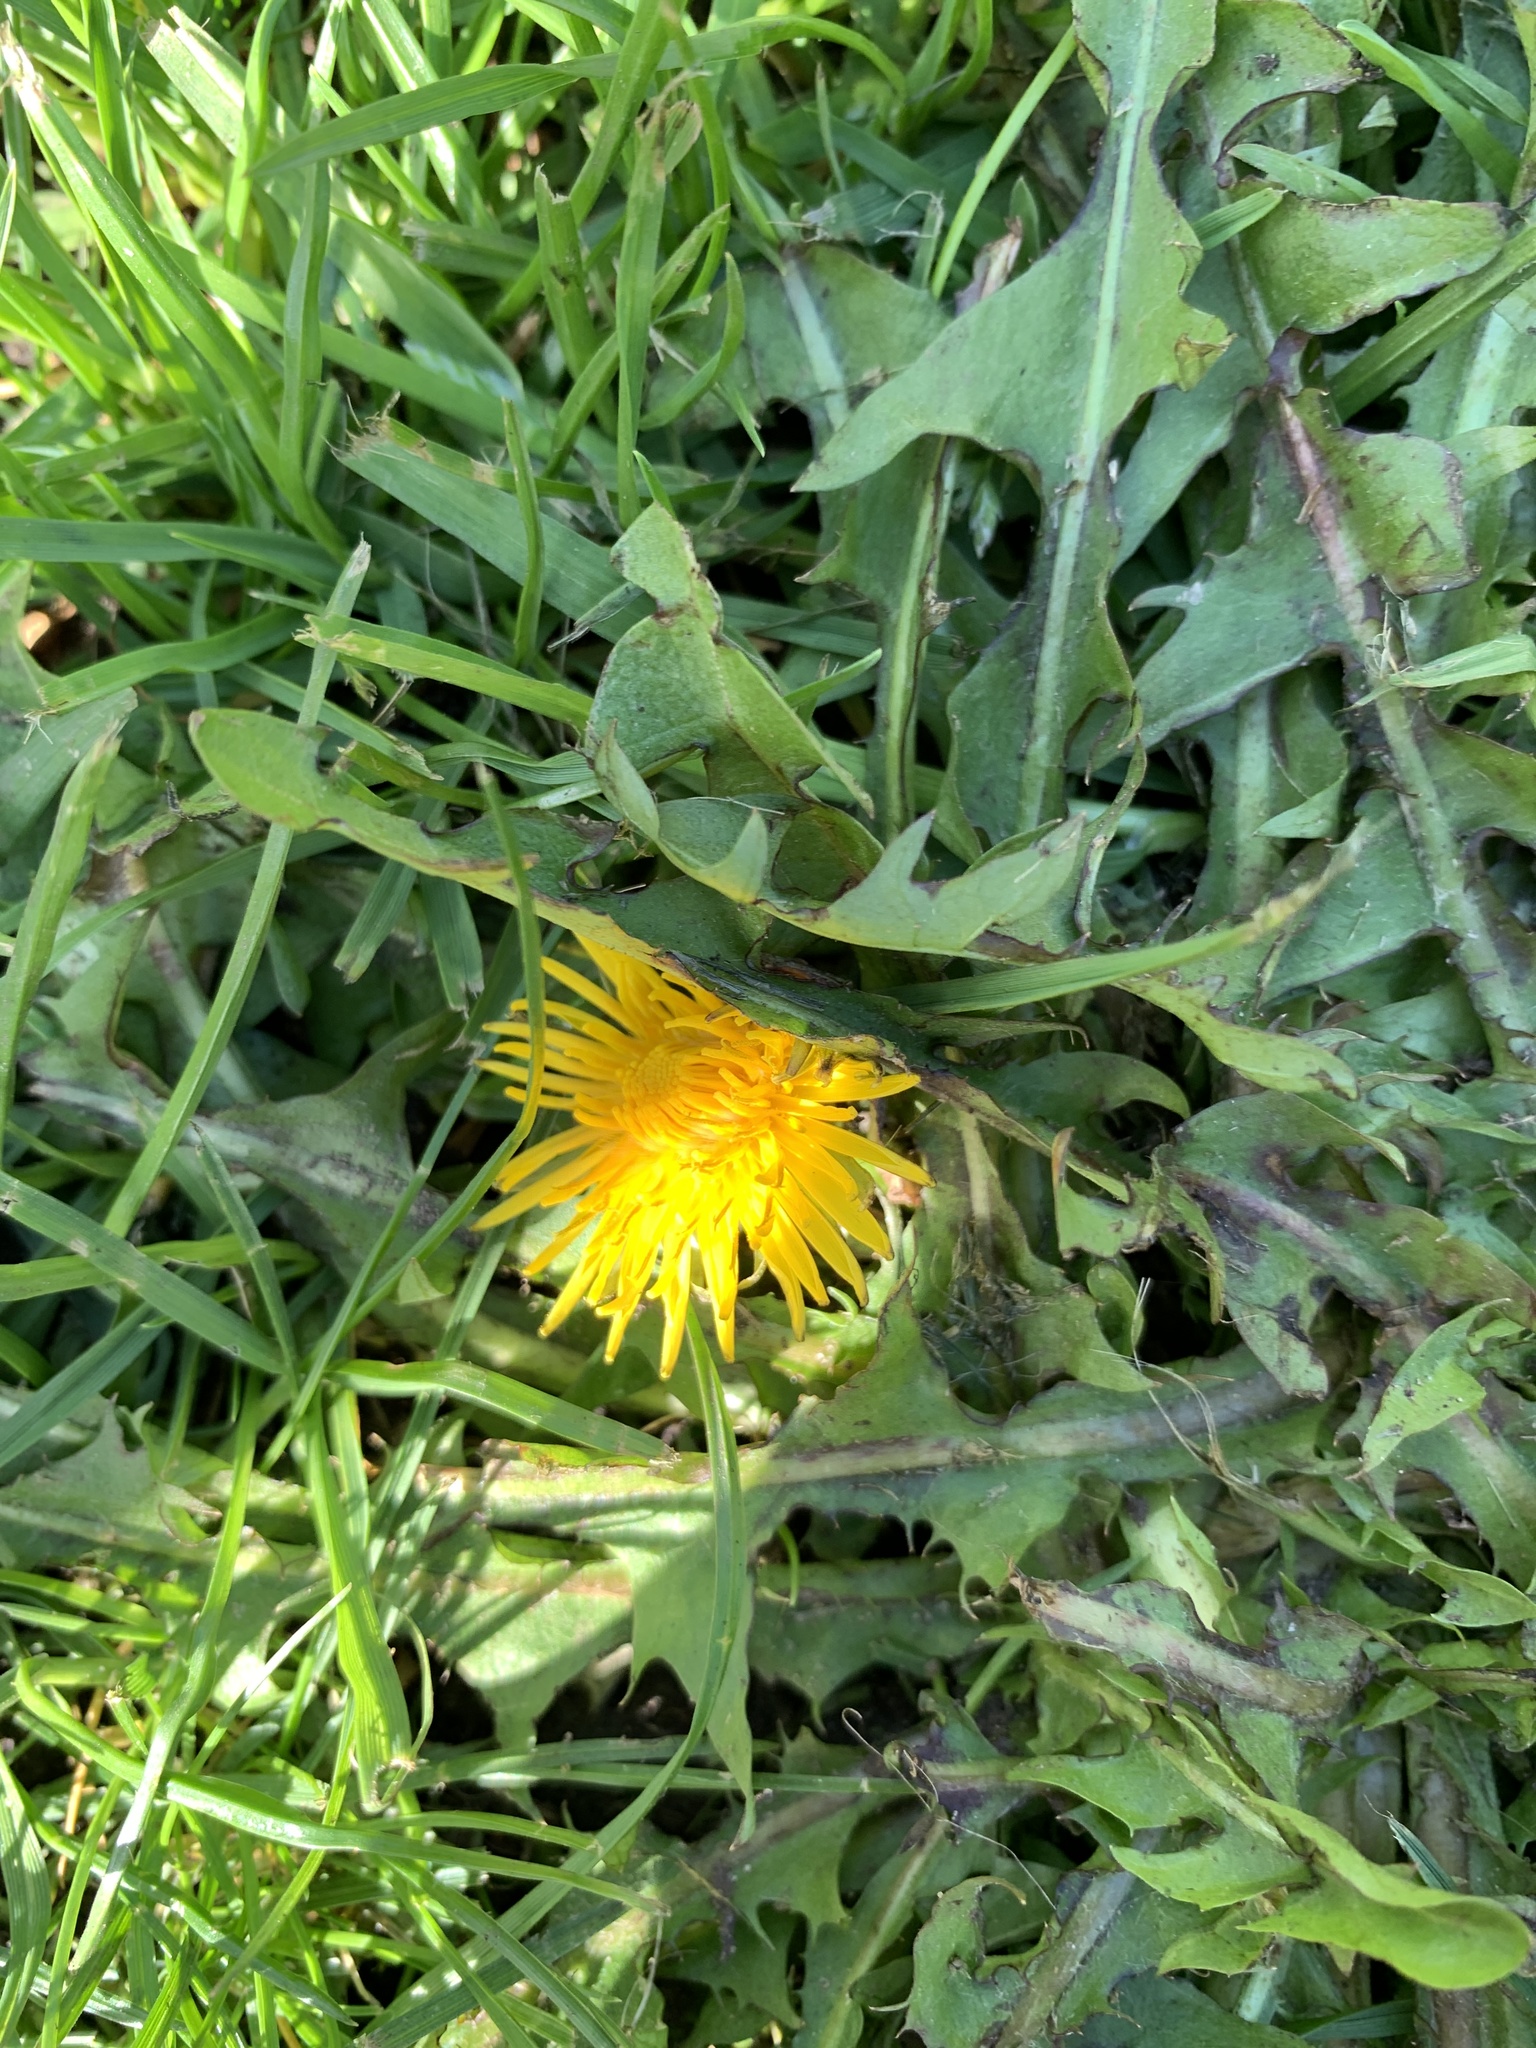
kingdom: Plantae
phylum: Tracheophyta
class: Magnoliopsida
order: Asterales
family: Asteraceae
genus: Taraxacum
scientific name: Taraxacum officinale
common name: Common dandelion
